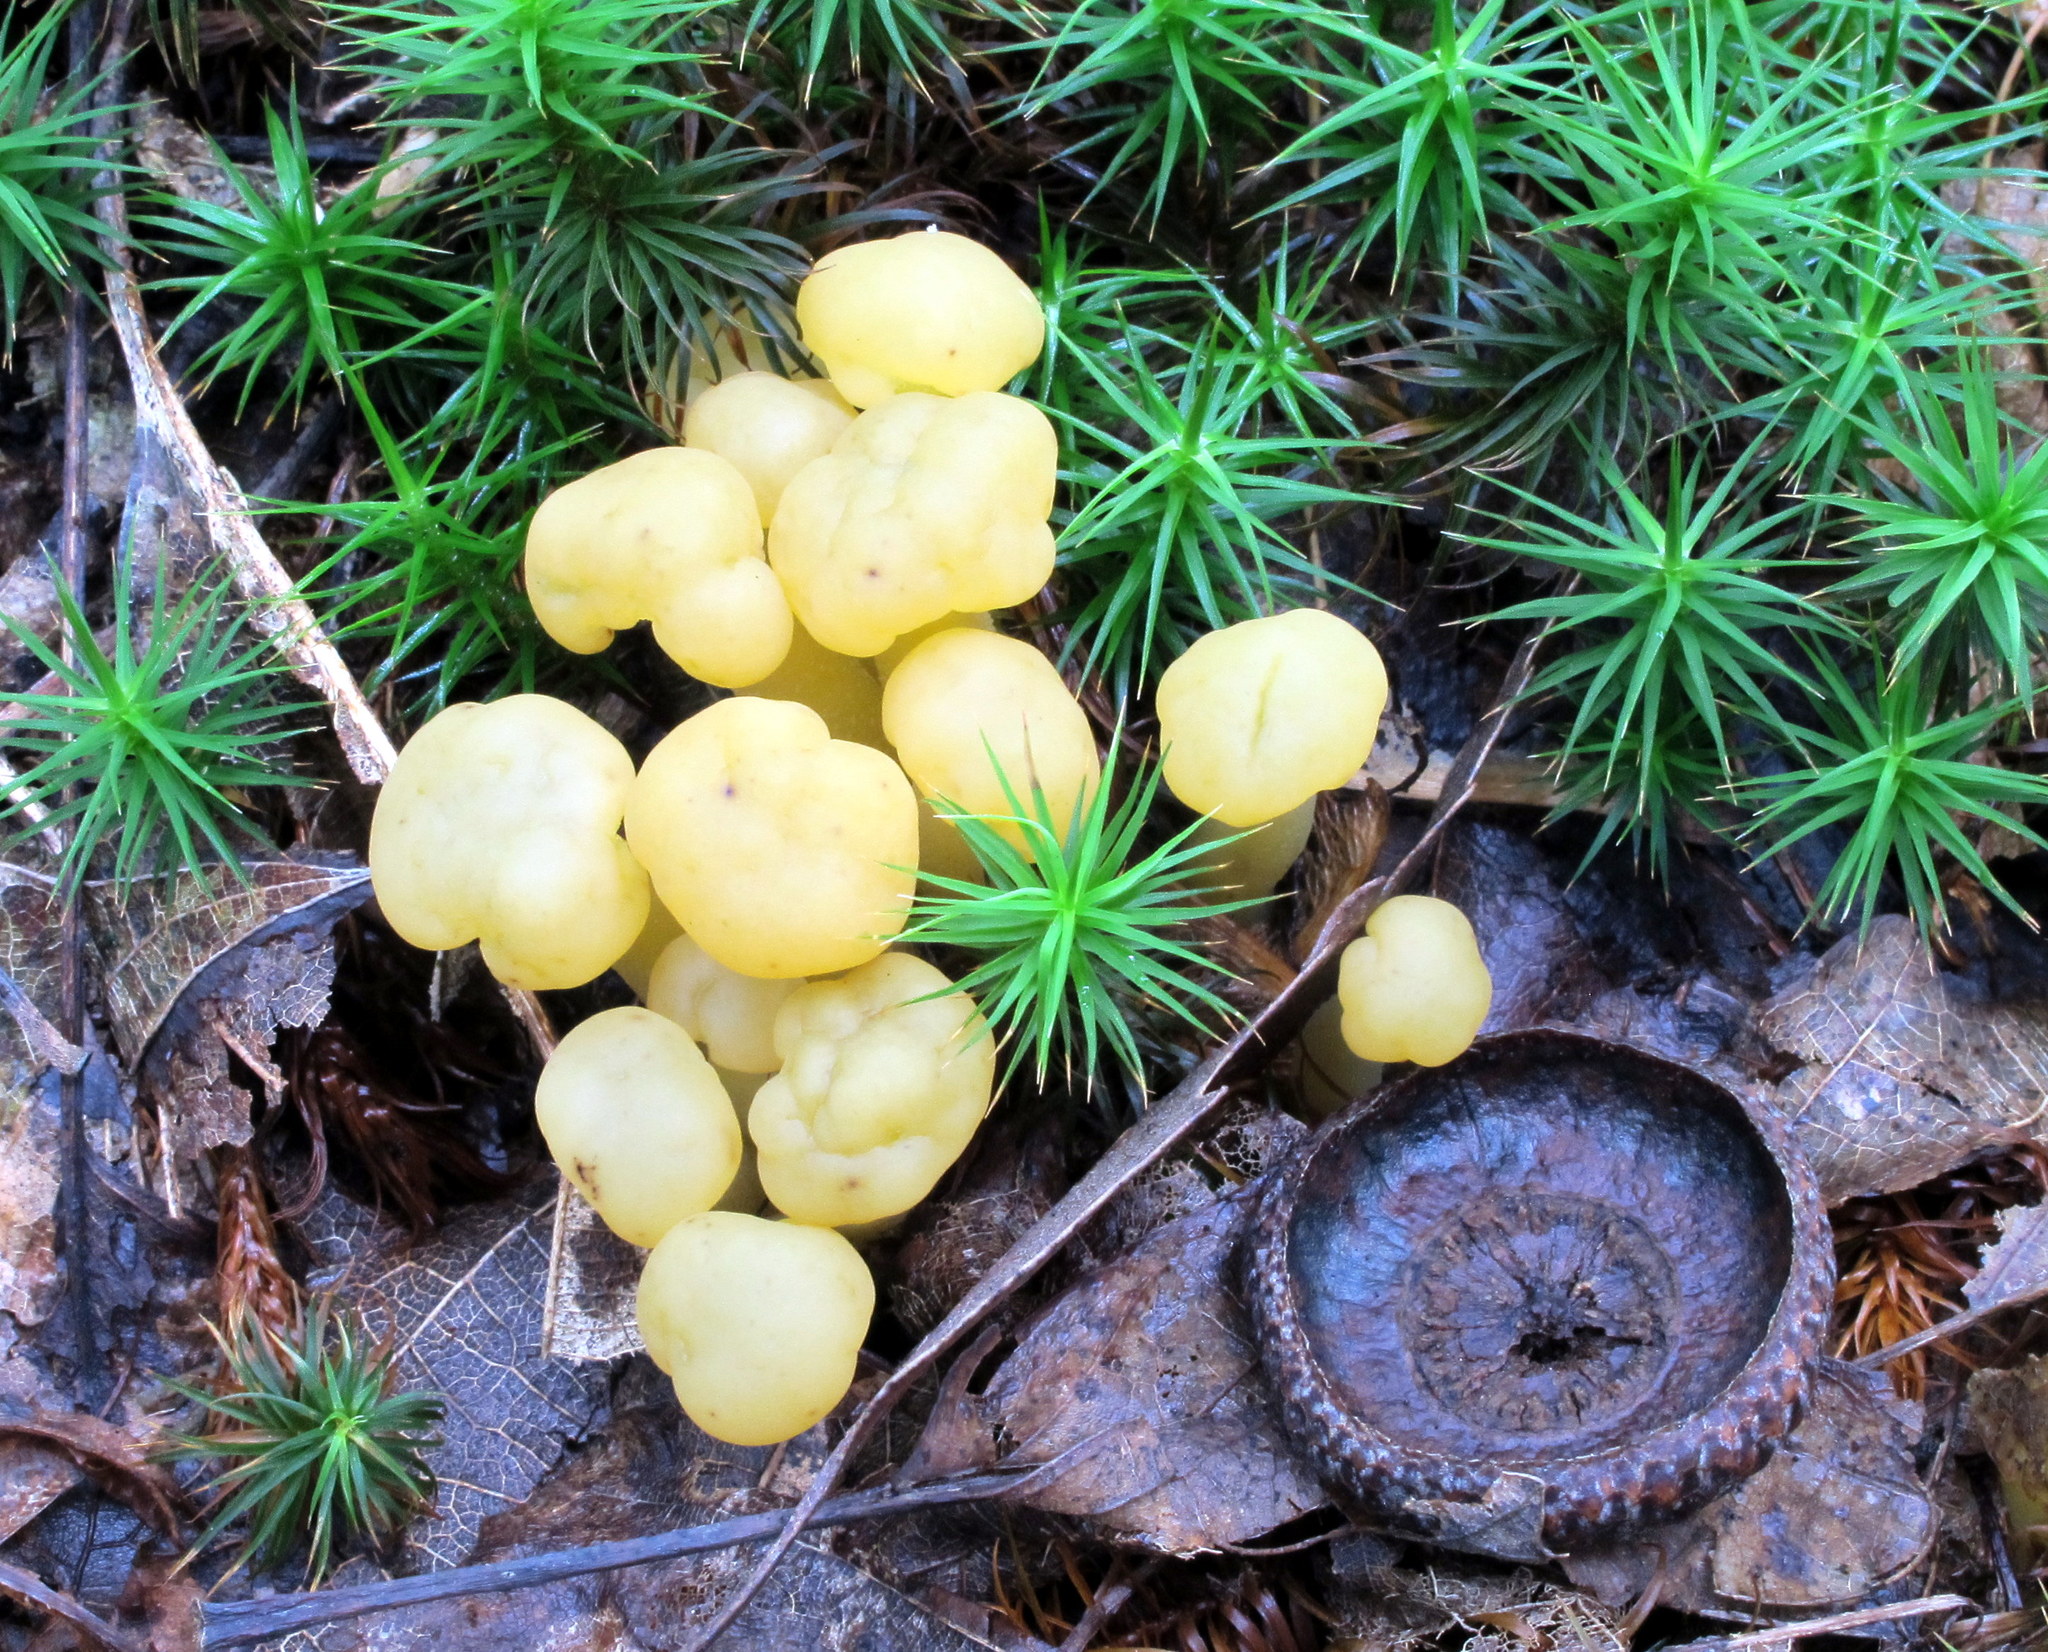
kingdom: Fungi
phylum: Ascomycota
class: Leotiomycetes
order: Leotiales
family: Leotiaceae
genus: Leotia
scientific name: Leotia lubrica
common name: Jellybaby
